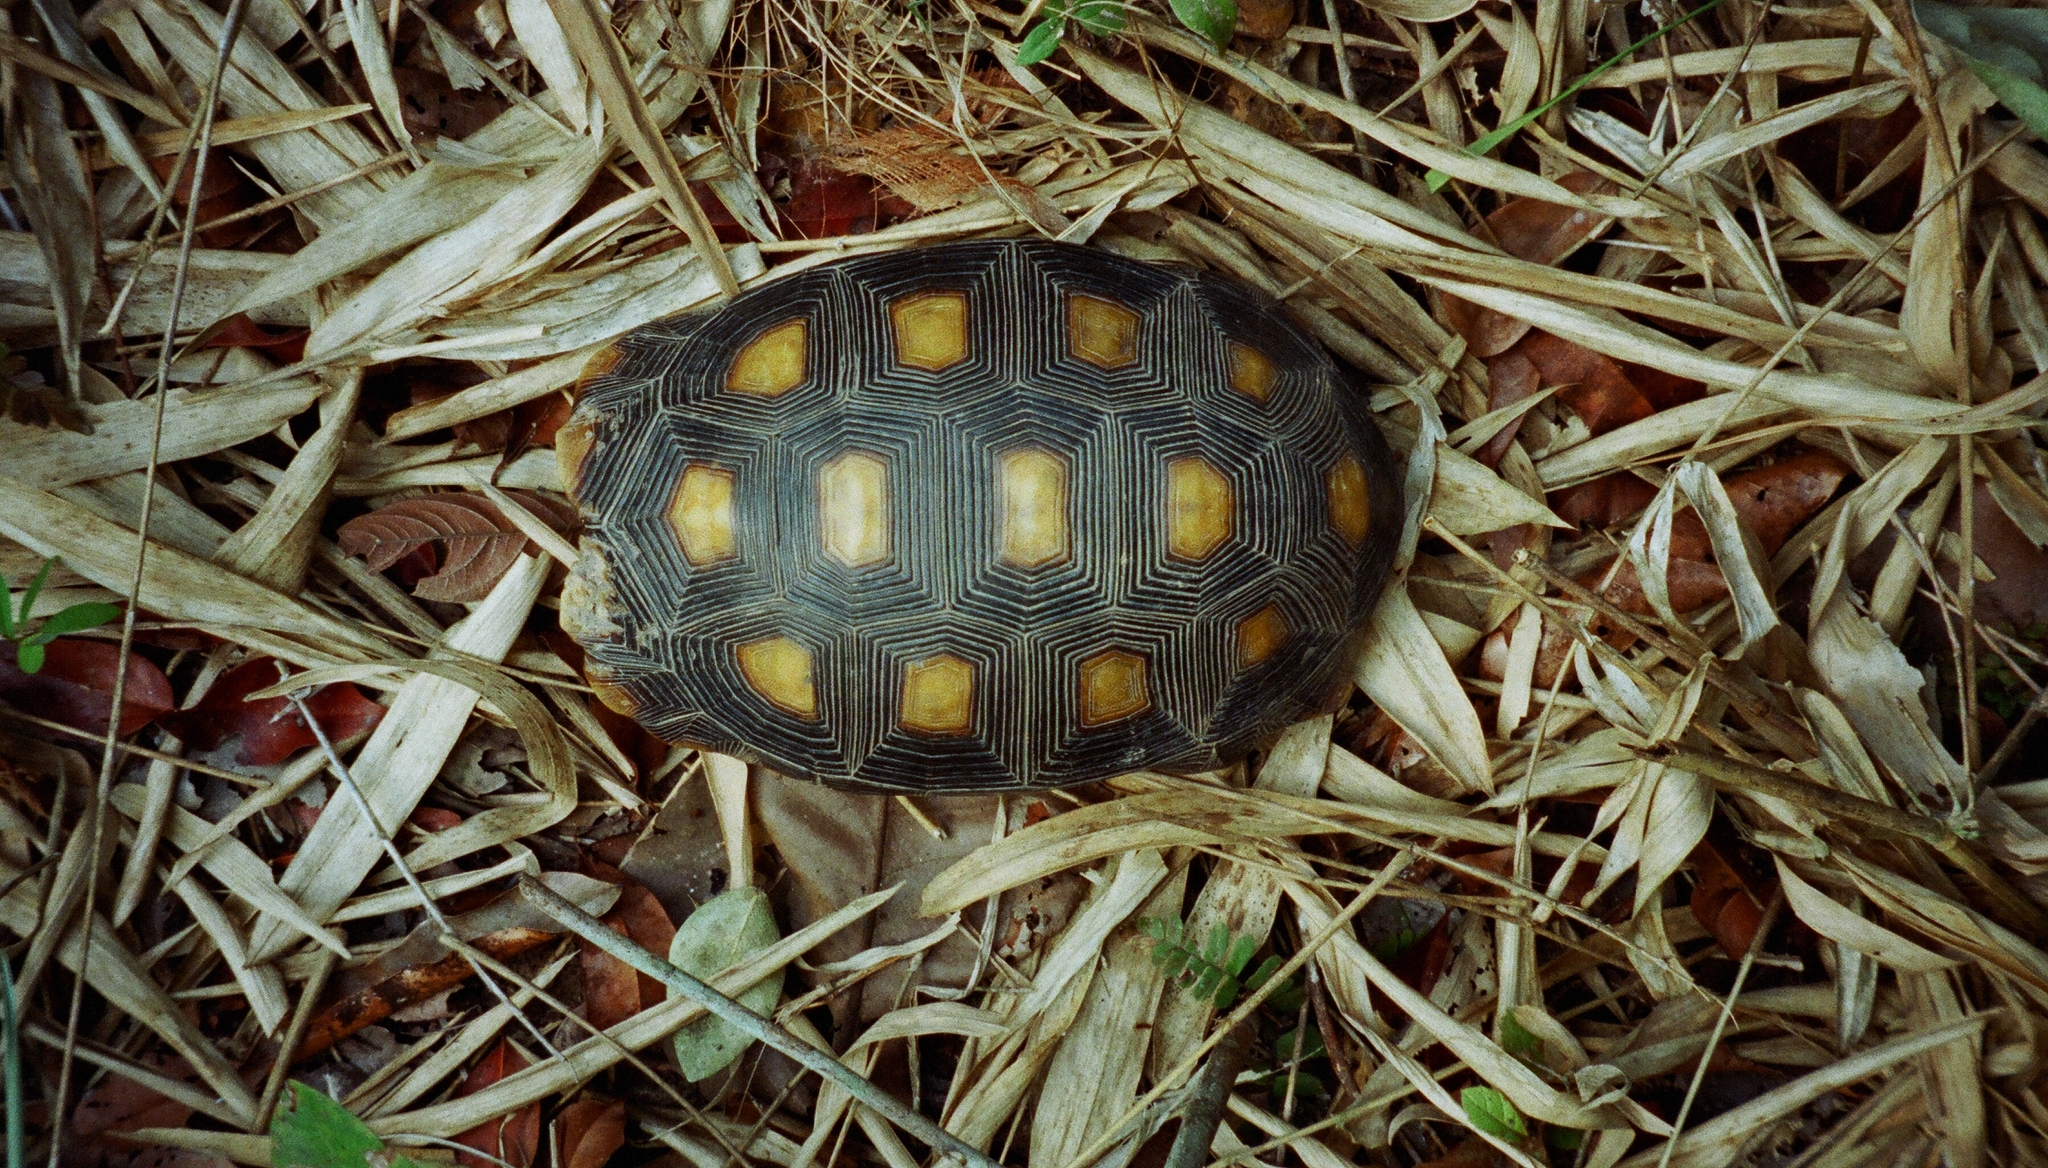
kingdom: Animalia
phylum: Chordata
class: Testudines
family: Testudinidae
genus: Chelonoidis
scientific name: Chelonoidis carbonarius
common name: Red-footed tortoise
